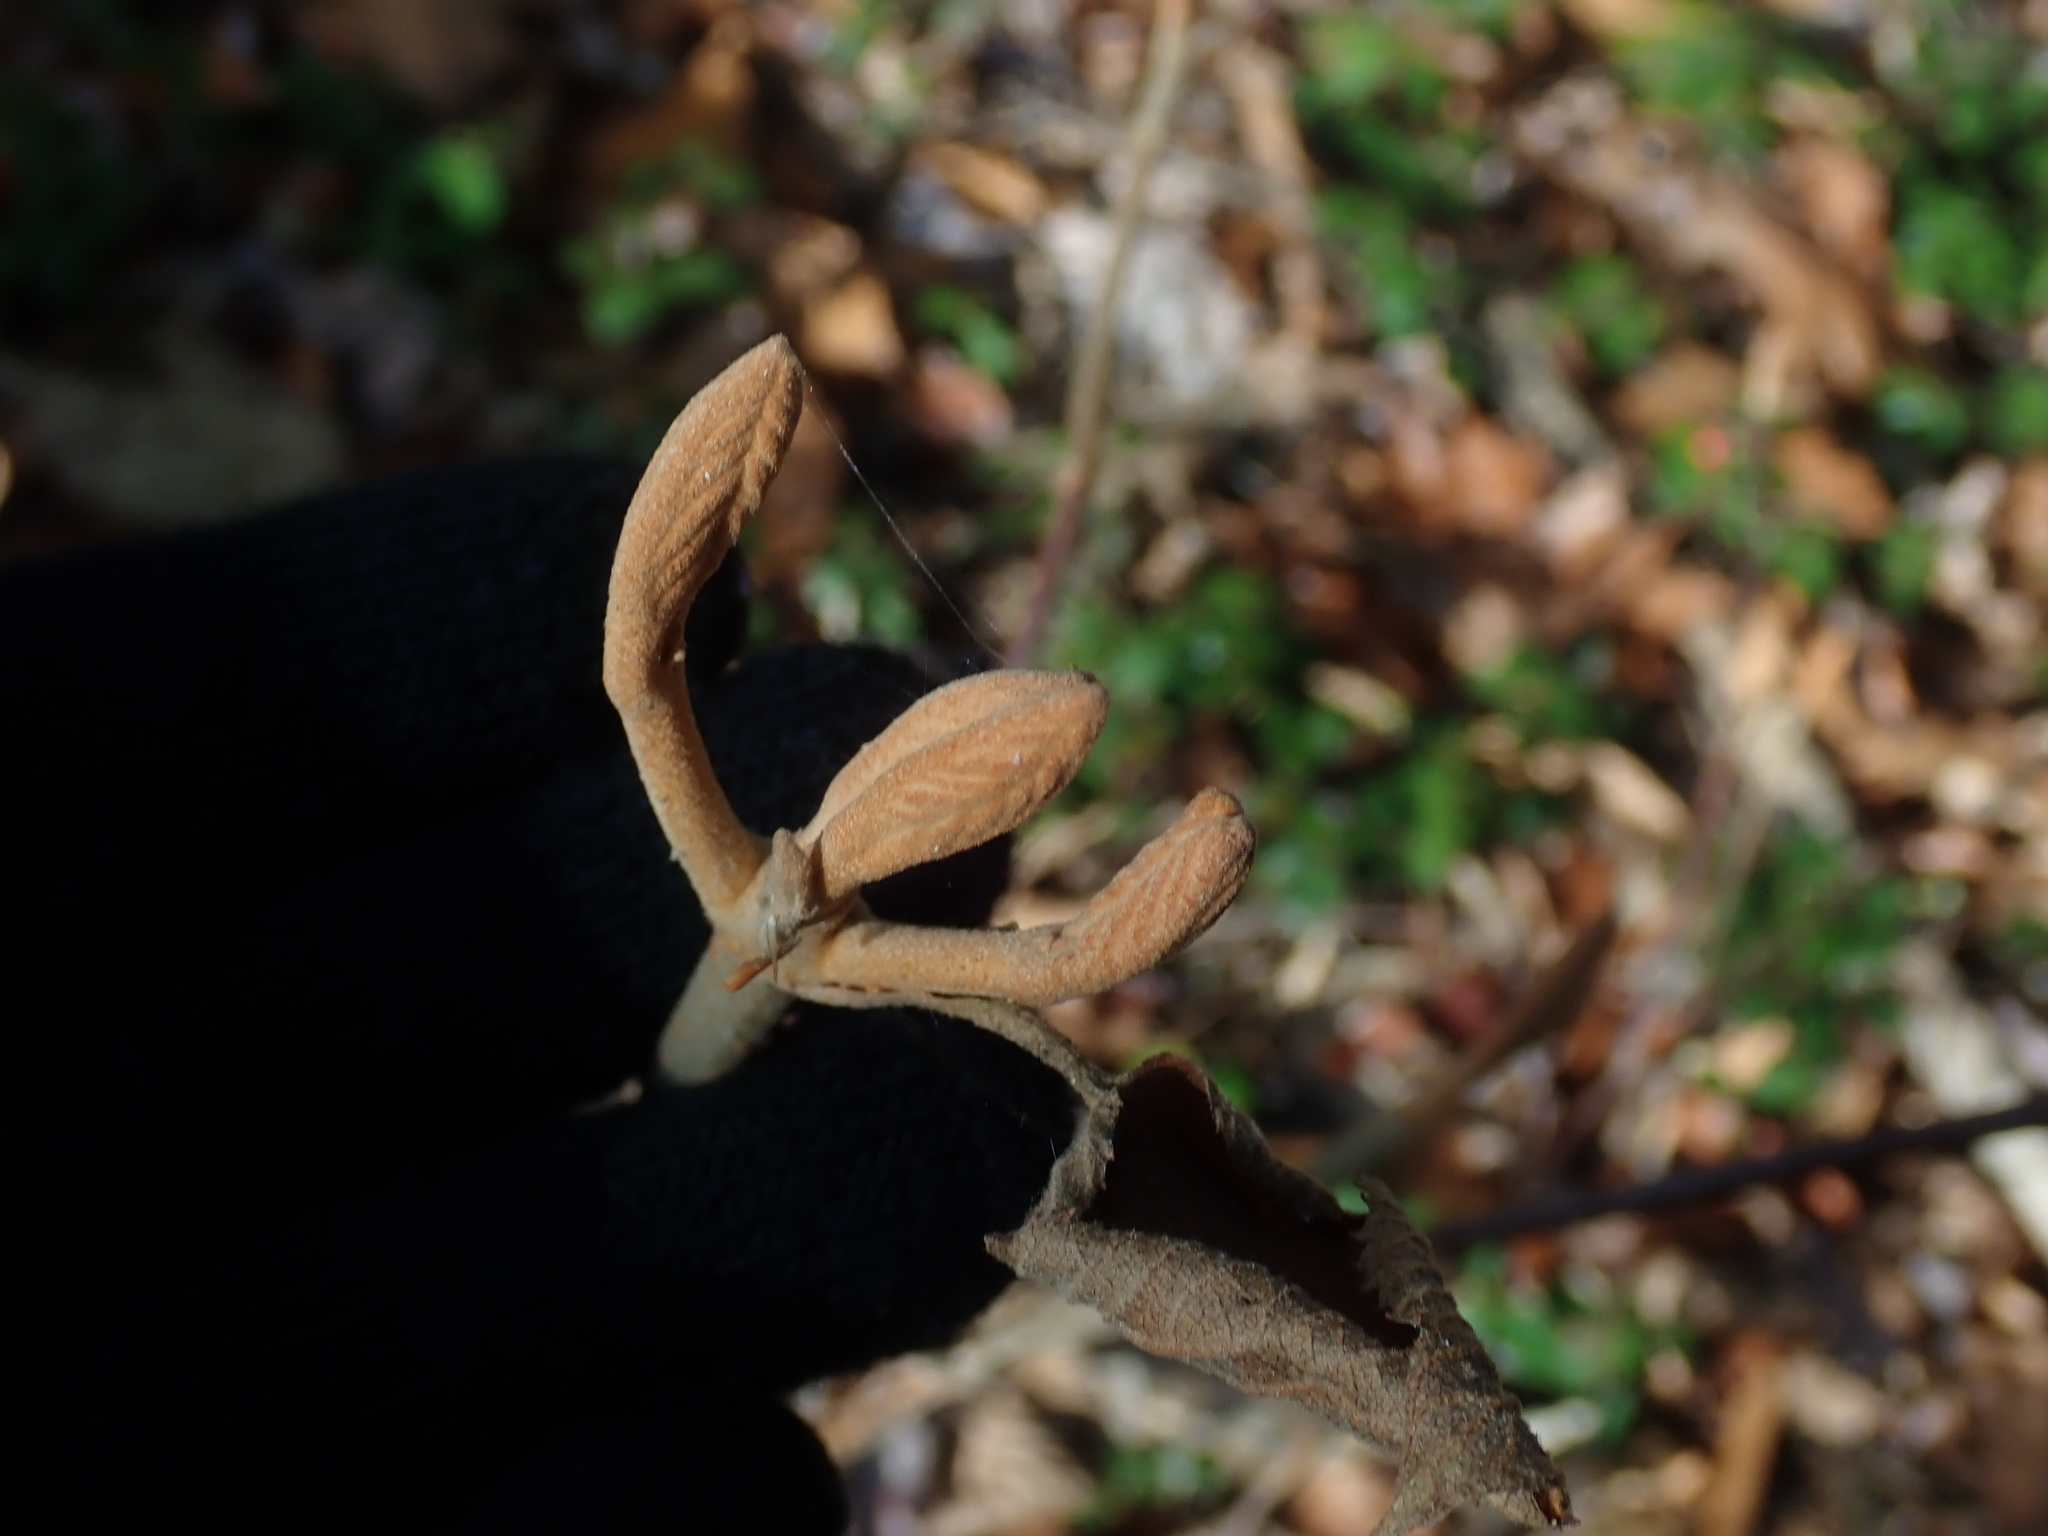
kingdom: Plantae
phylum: Tracheophyta
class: Magnoliopsida
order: Dipsacales
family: Viburnaceae
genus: Viburnum
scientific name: Viburnum lantanoides
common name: Hobblebush
